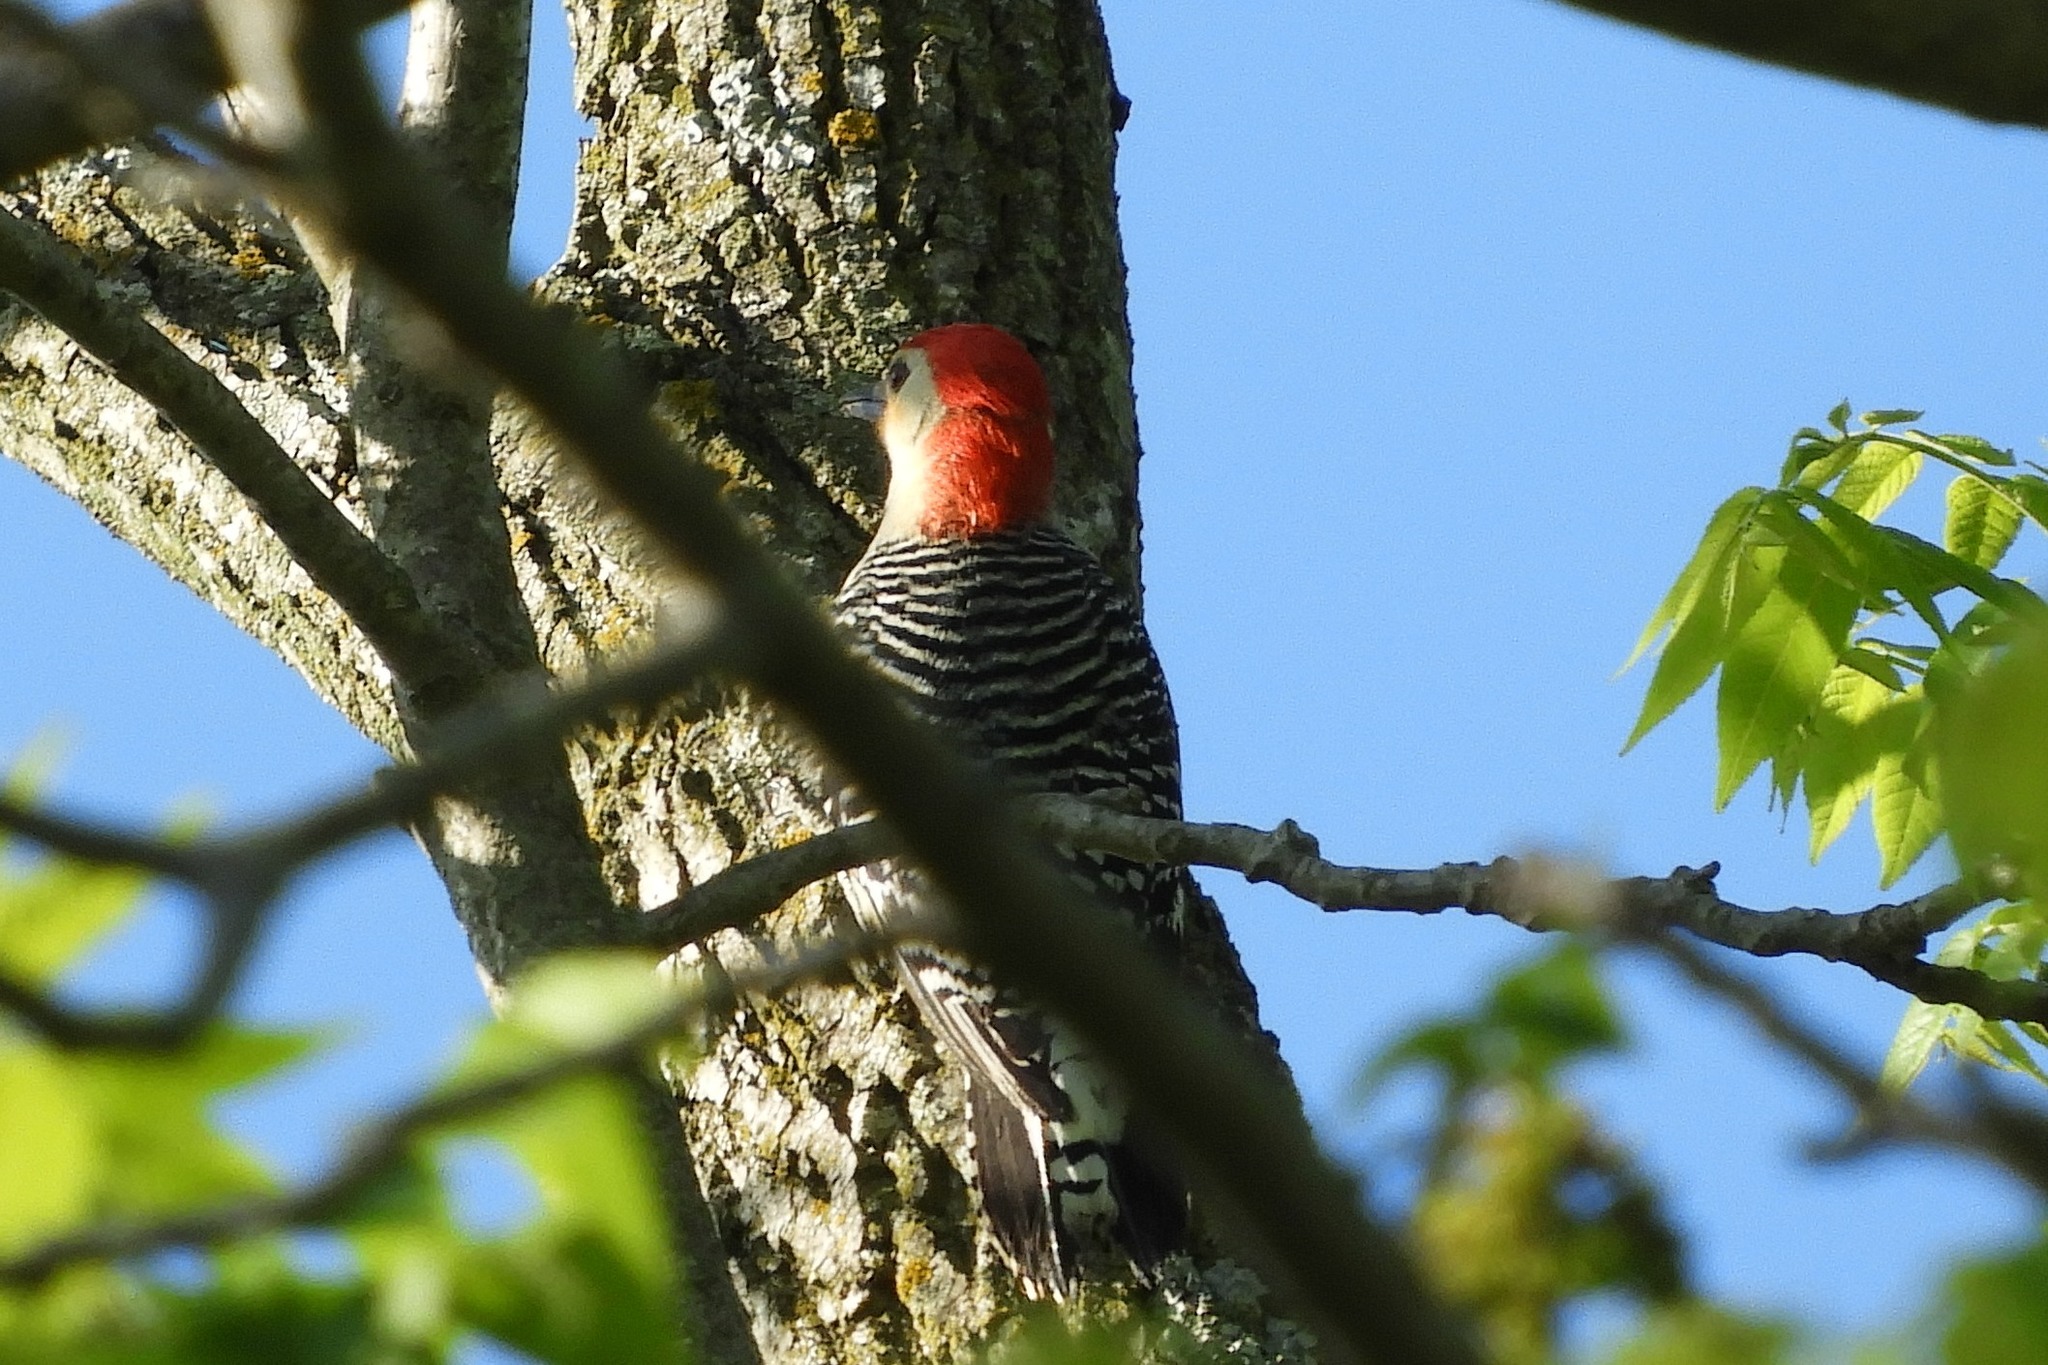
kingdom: Animalia
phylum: Chordata
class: Aves
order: Piciformes
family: Picidae
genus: Melanerpes
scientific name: Melanerpes carolinus
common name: Red-bellied woodpecker
